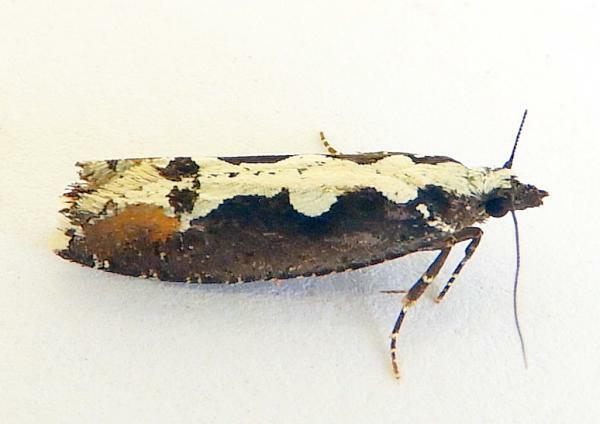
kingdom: Animalia
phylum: Arthropoda
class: Insecta
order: Lepidoptera
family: Tortricidae
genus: Epinotia
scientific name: Epinotia albicapitana
